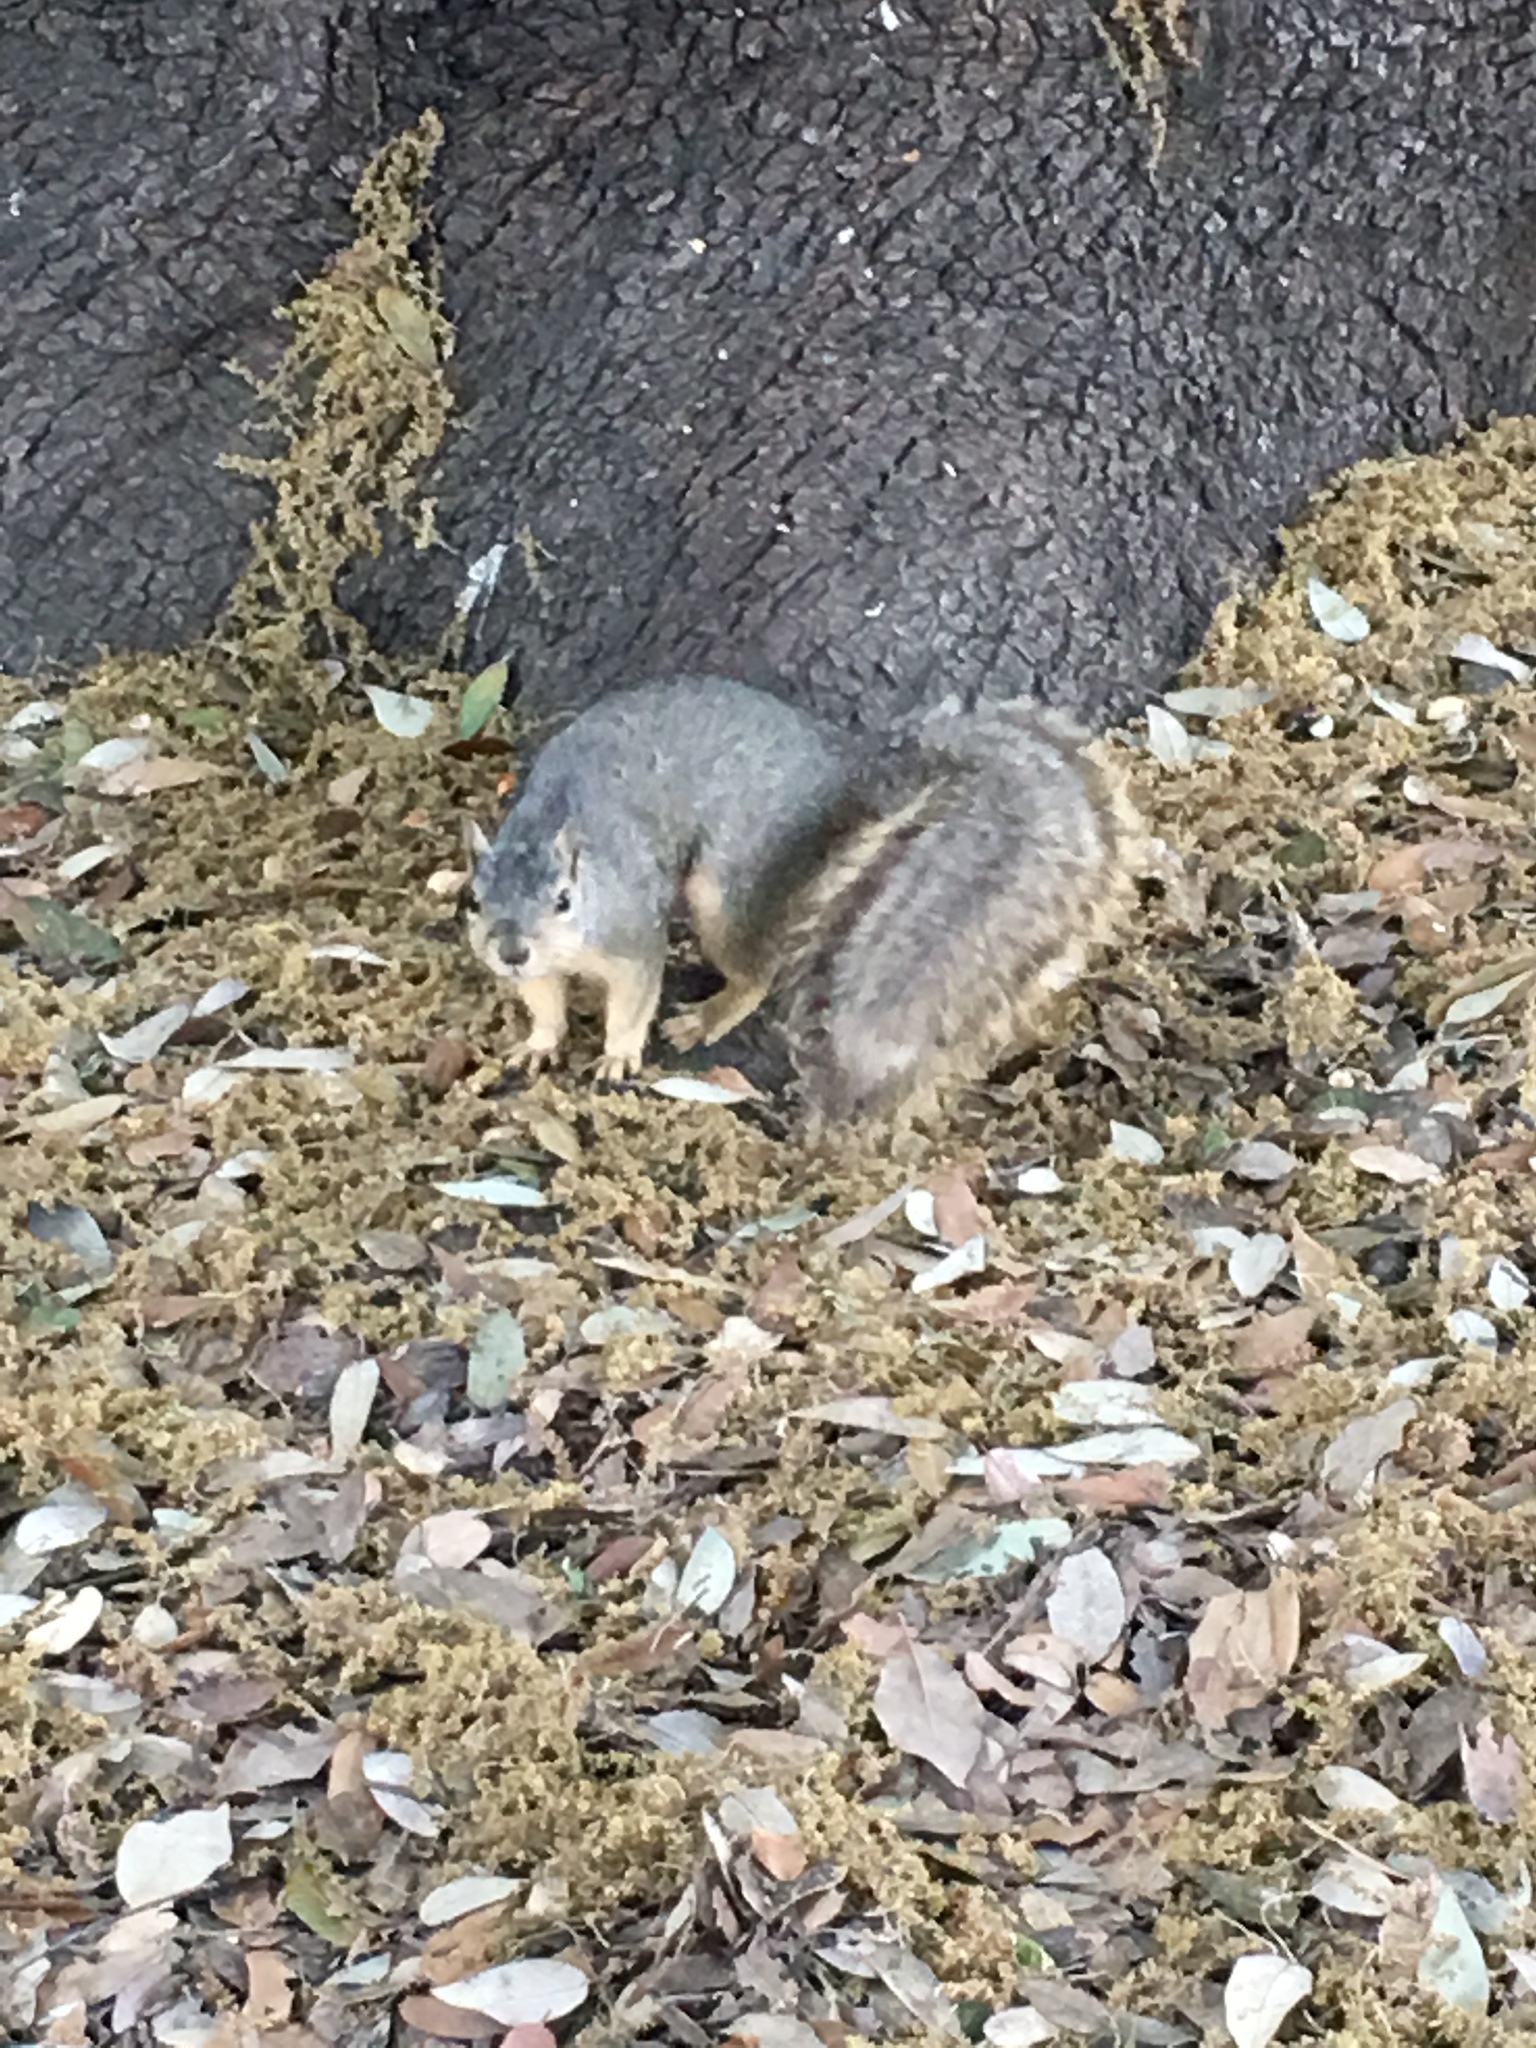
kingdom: Animalia
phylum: Chordata
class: Mammalia
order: Rodentia
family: Sciuridae
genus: Sciurus
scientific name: Sciurus niger
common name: Fox squirrel
